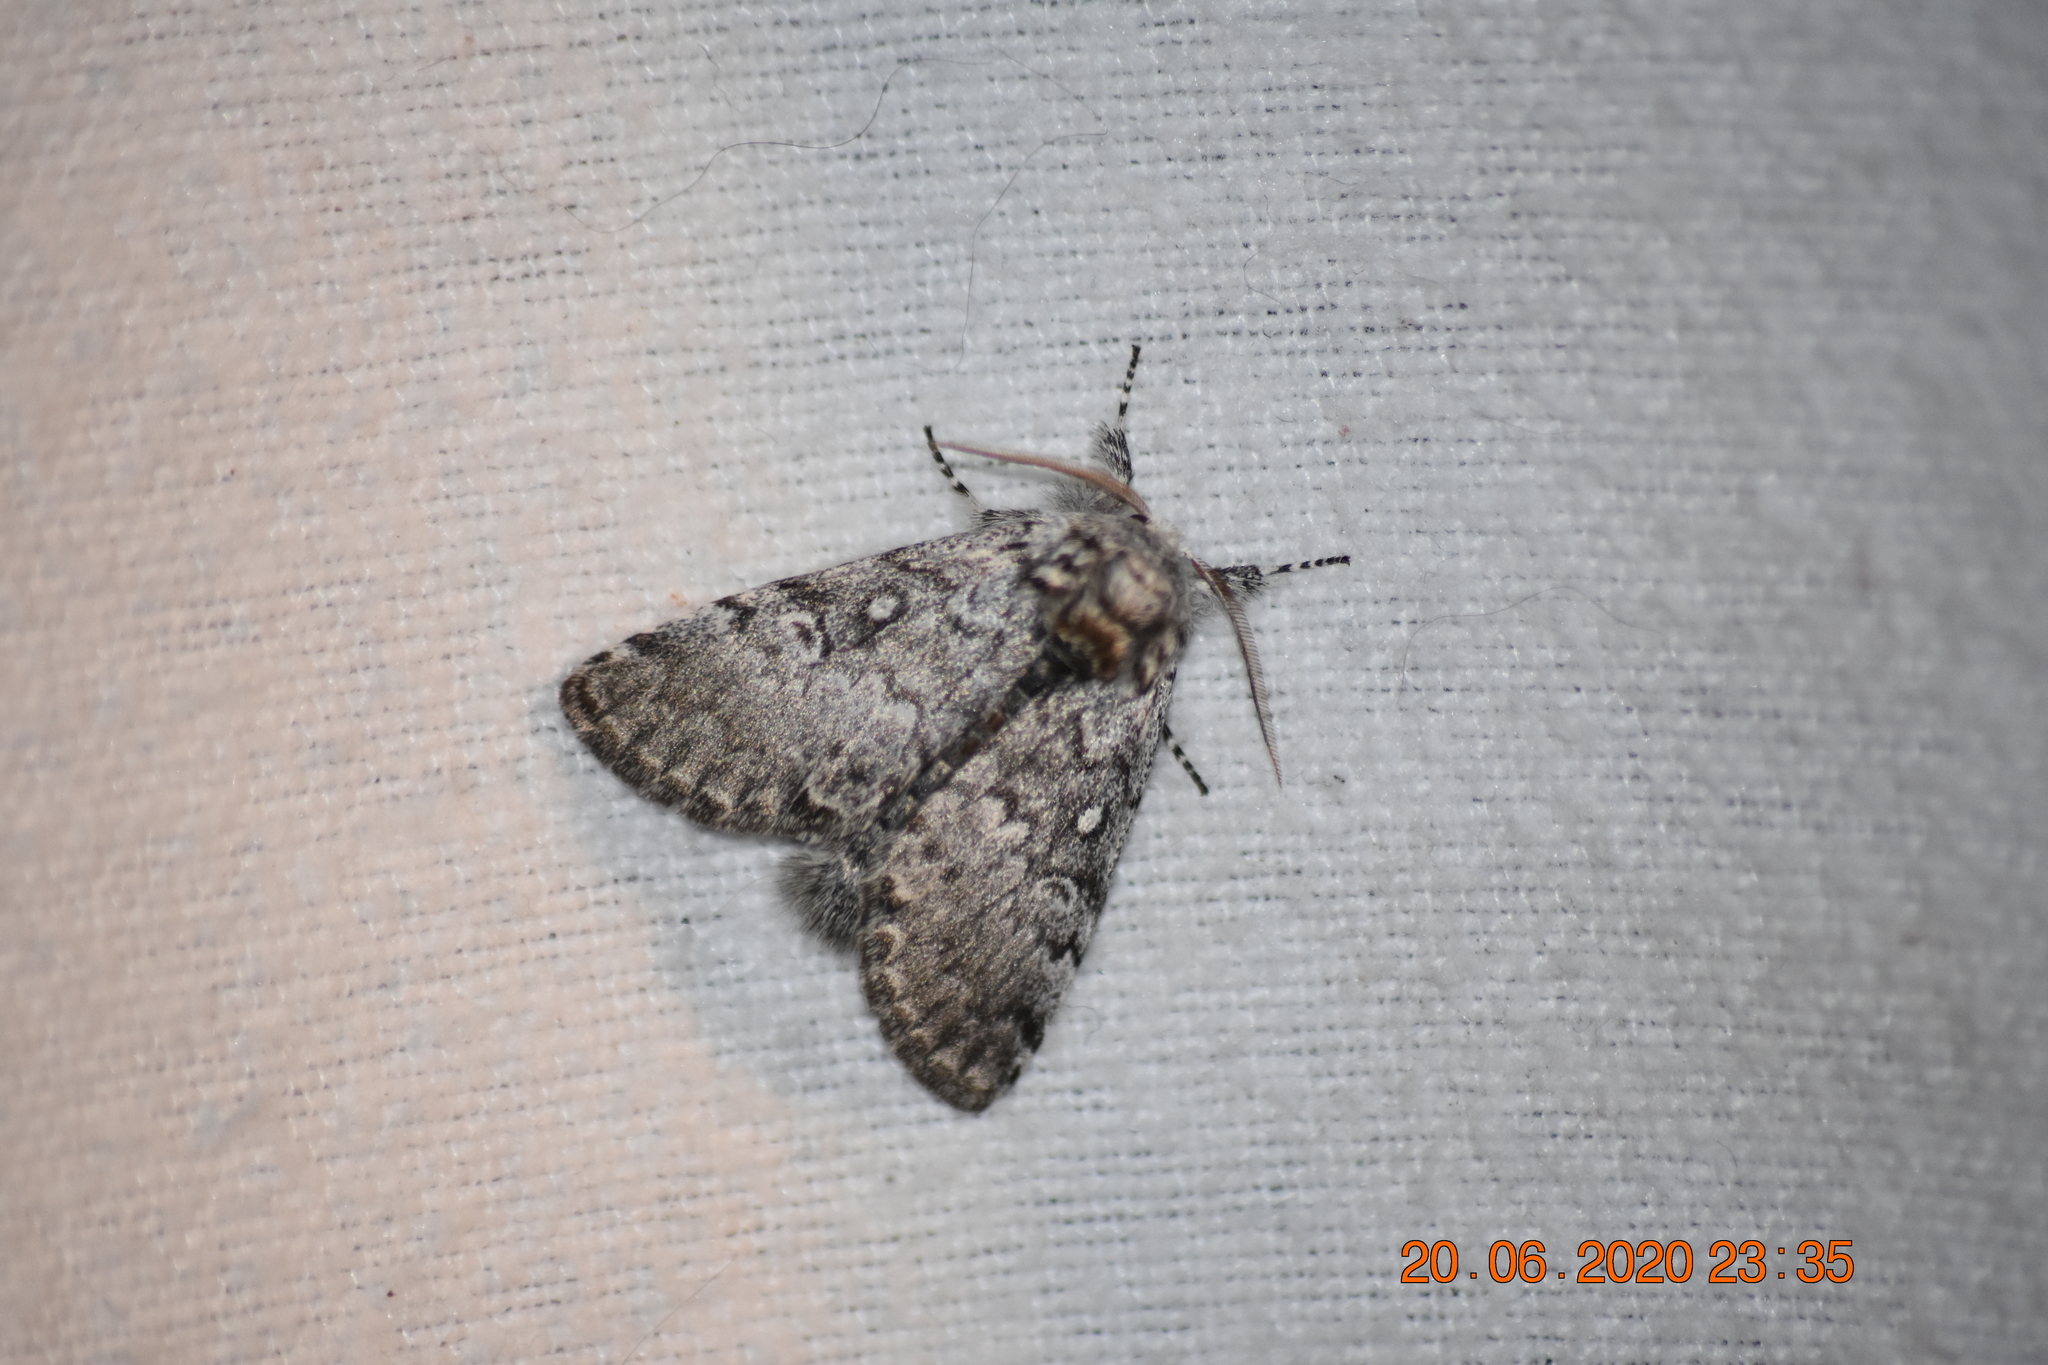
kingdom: Animalia
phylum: Arthropoda
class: Insecta
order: Lepidoptera
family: Noctuidae
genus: Colocasia
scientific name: Colocasia propinquilinea
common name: Close-banded demas
